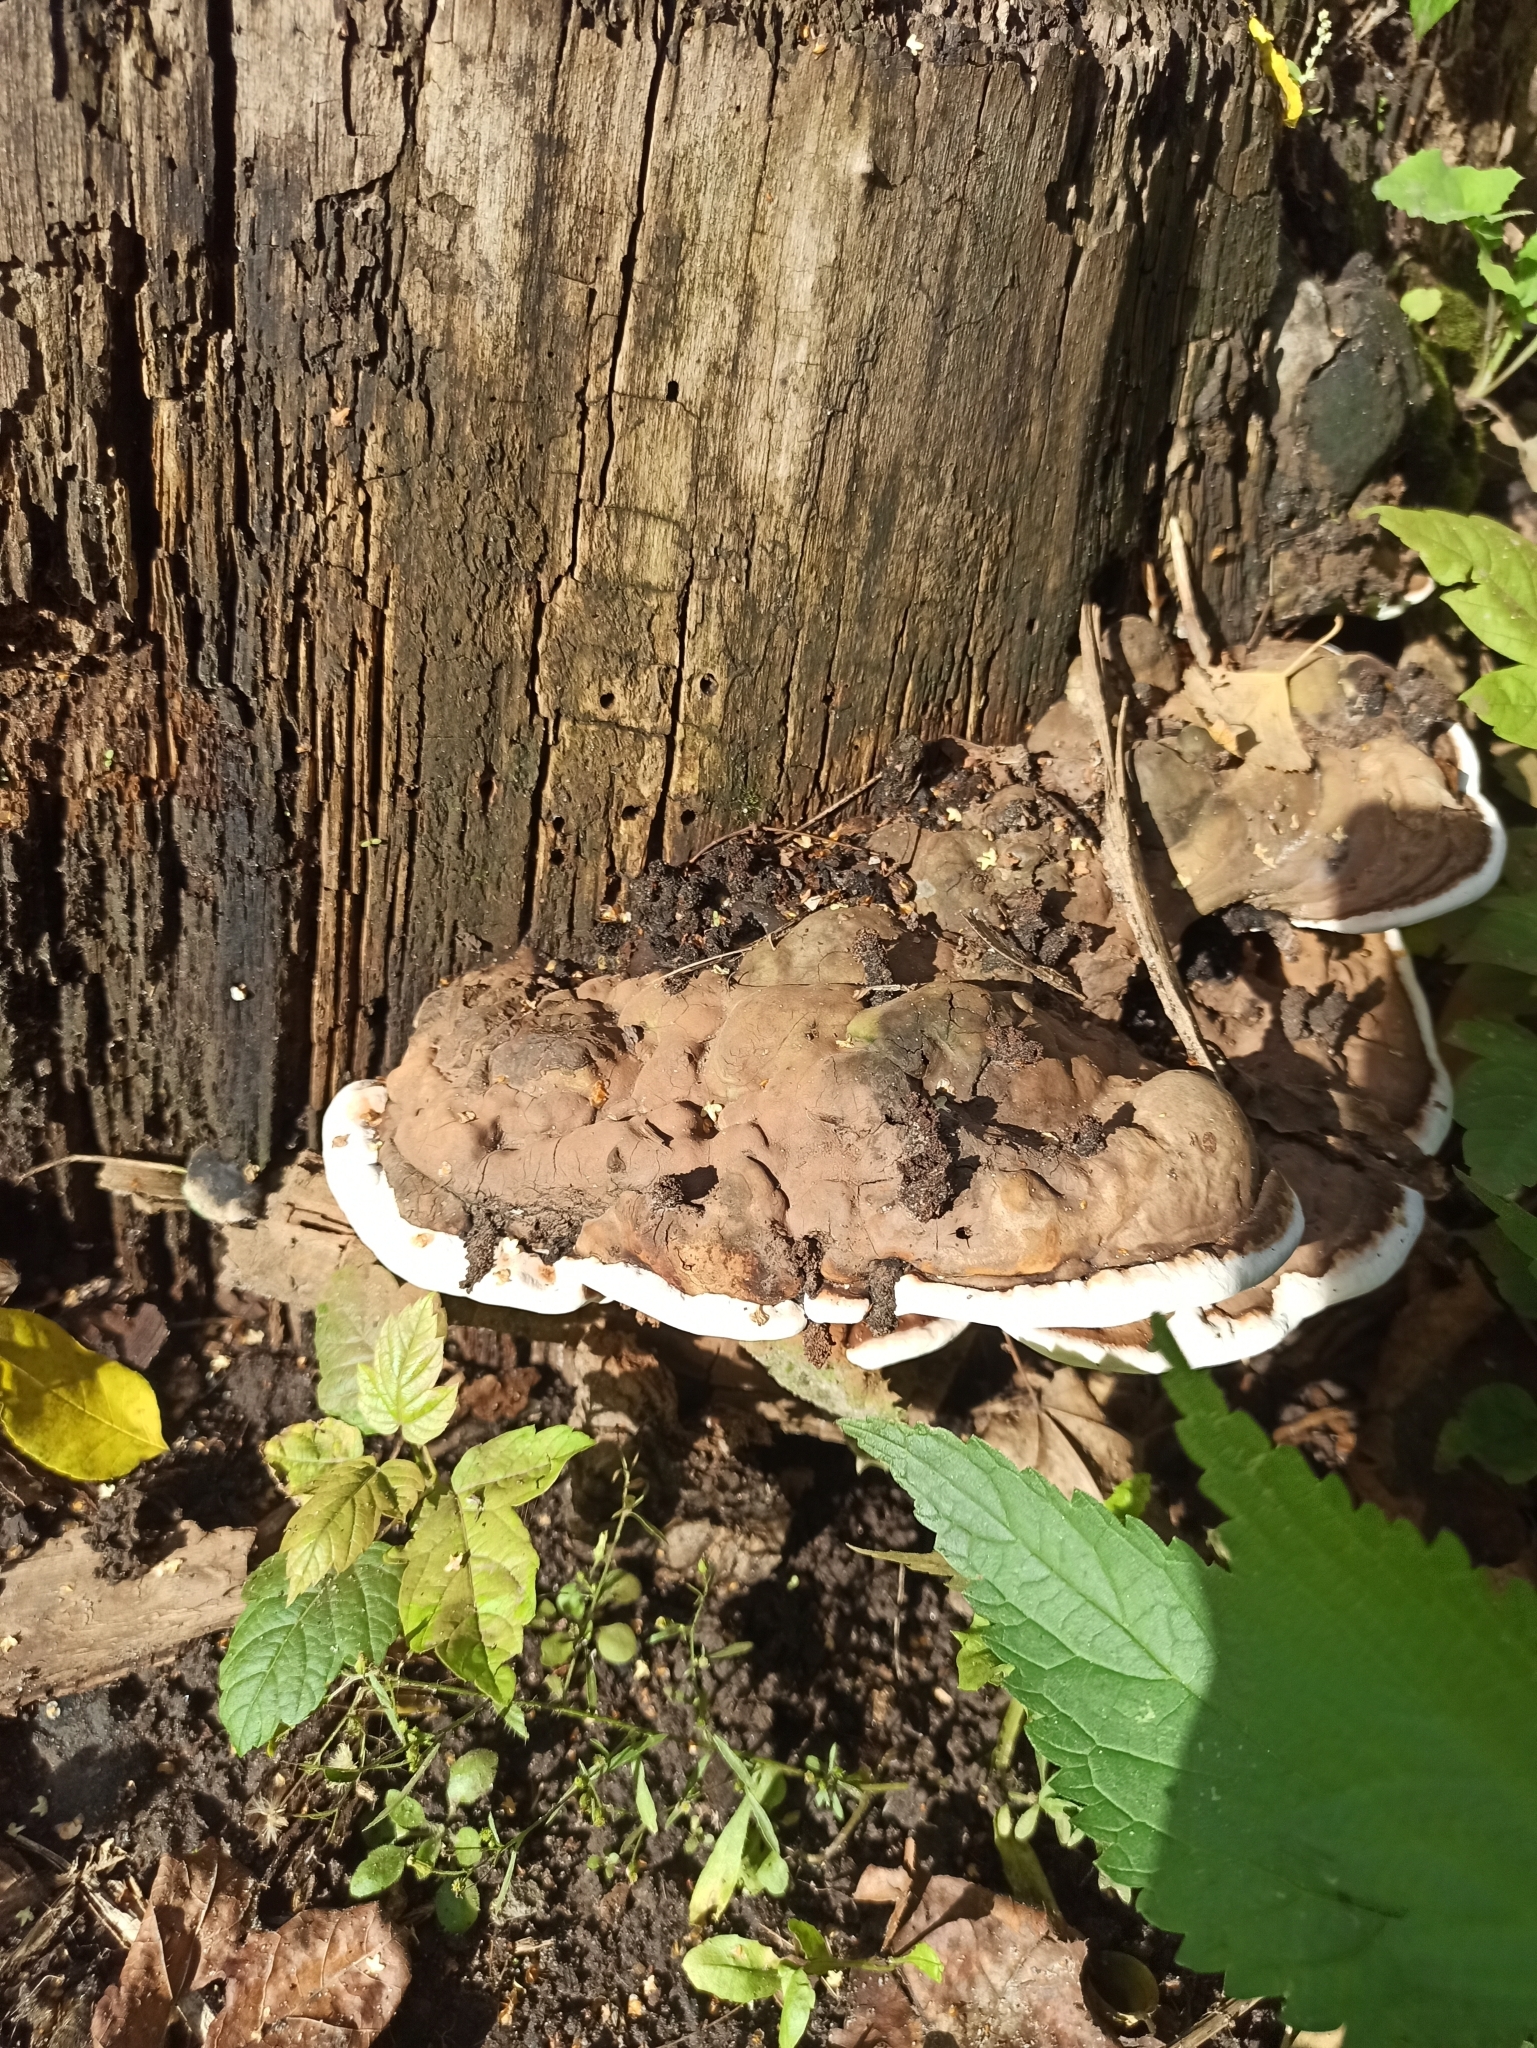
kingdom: Fungi
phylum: Basidiomycota
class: Agaricomycetes
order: Polyporales
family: Polyporaceae
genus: Ganoderma
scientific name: Ganoderma applanatum
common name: Artist's bracket
